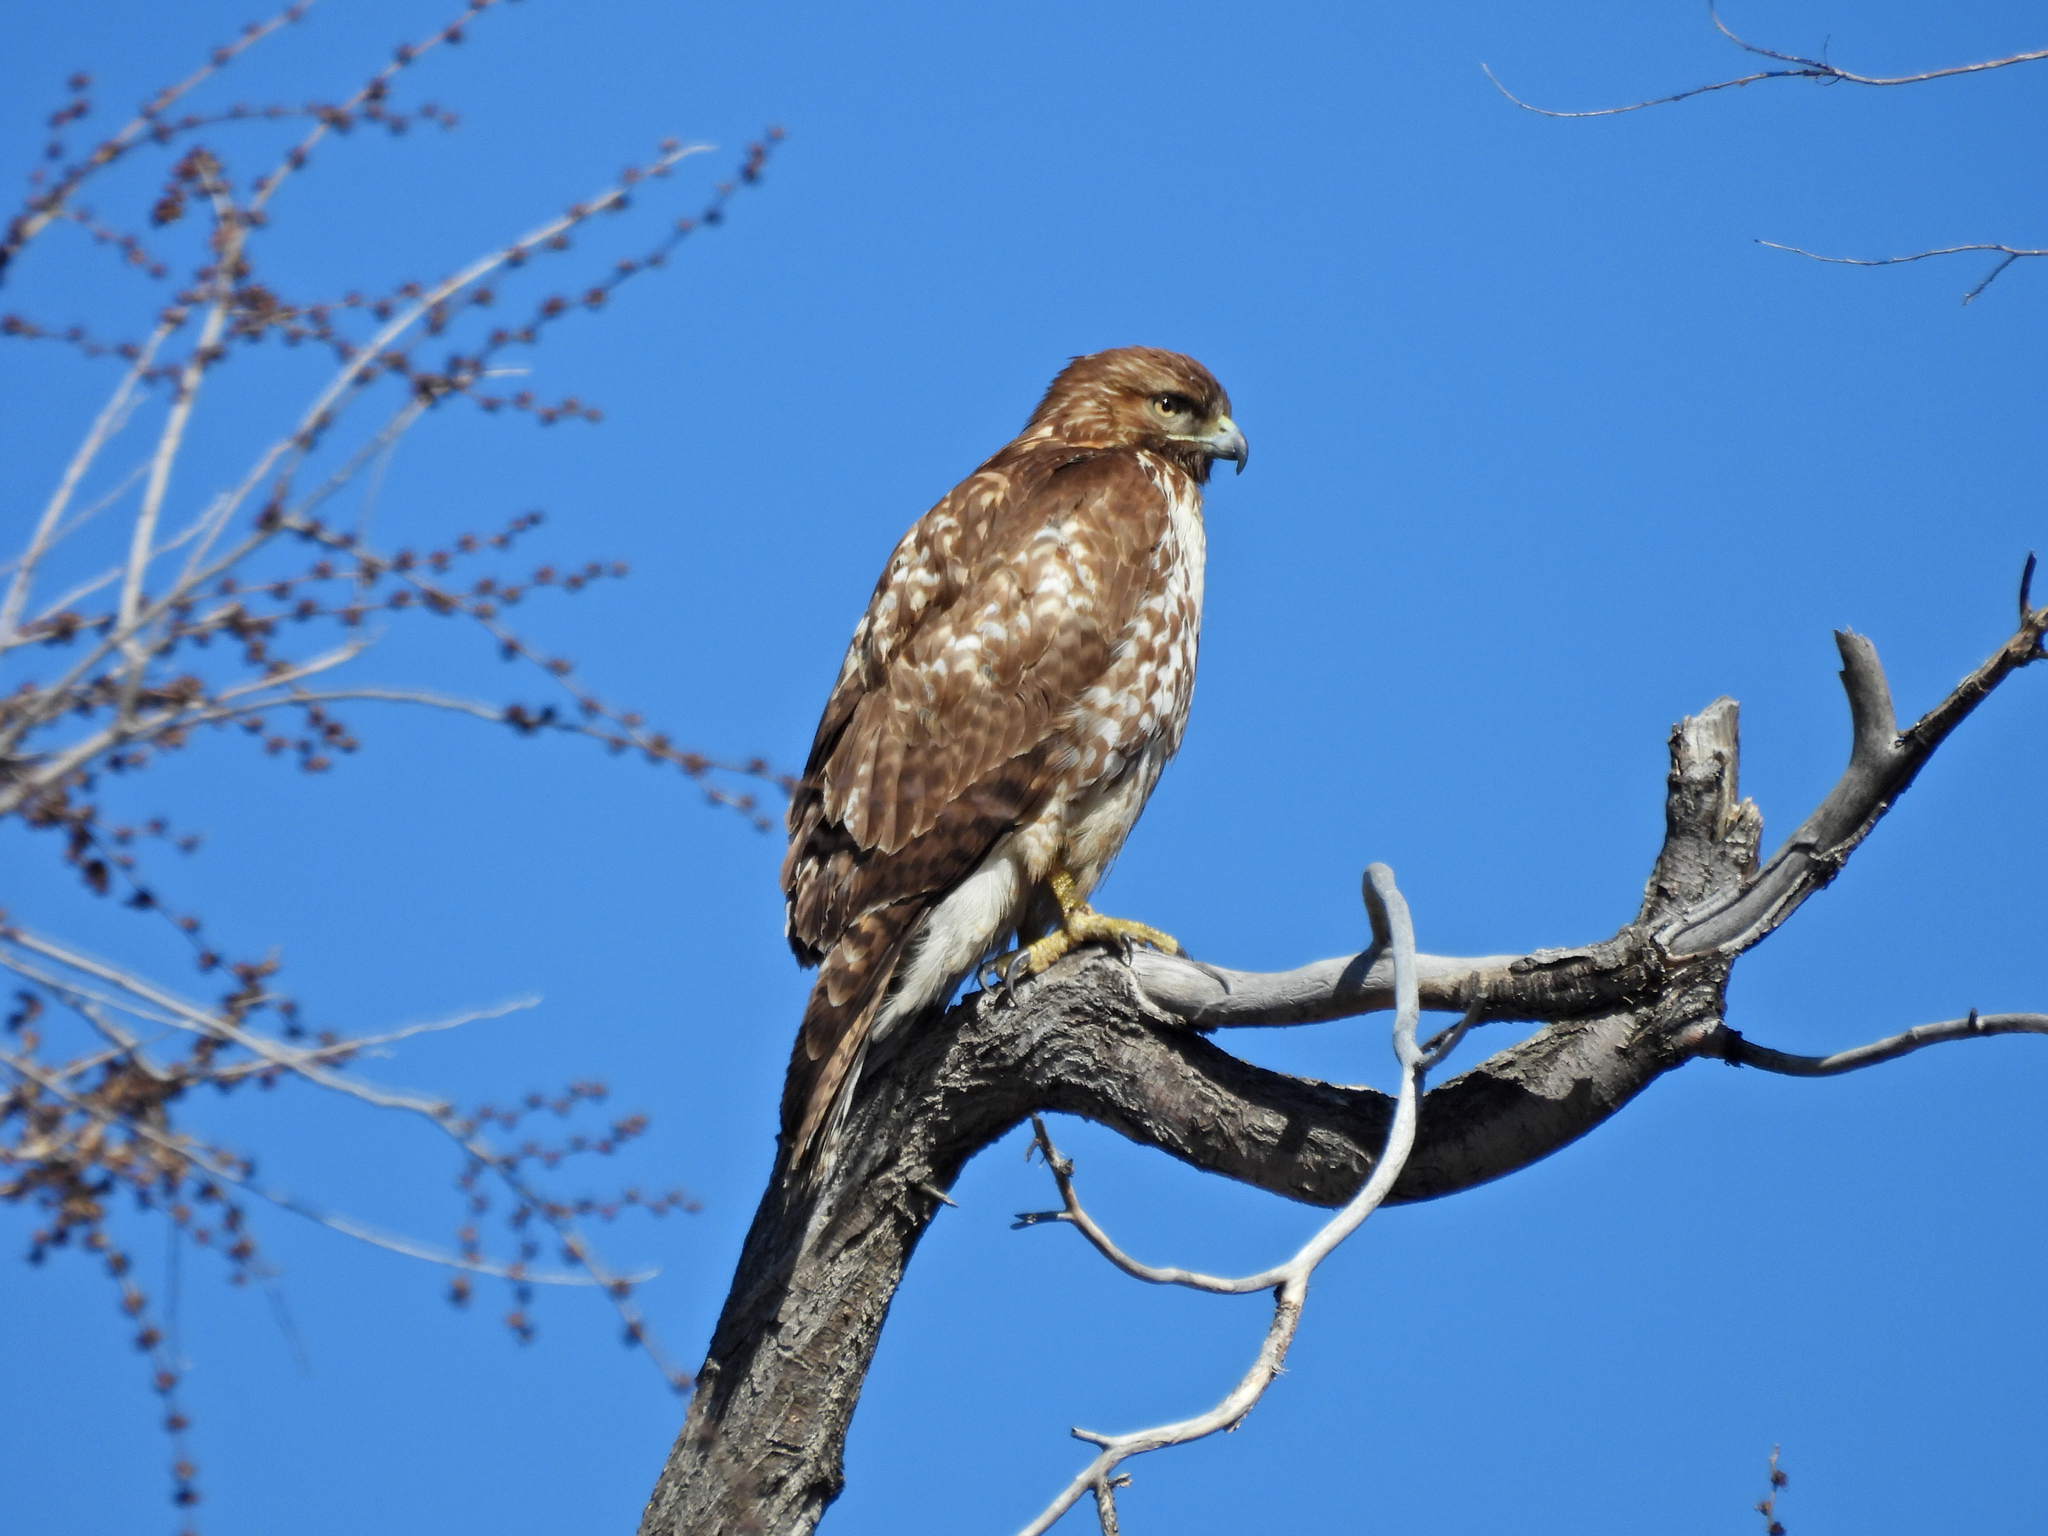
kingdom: Animalia
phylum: Chordata
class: Aves
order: Accipitriformes
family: Accipitridae
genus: Buteo
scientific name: Buteo jamaicensis
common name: Red-tailed hawk
